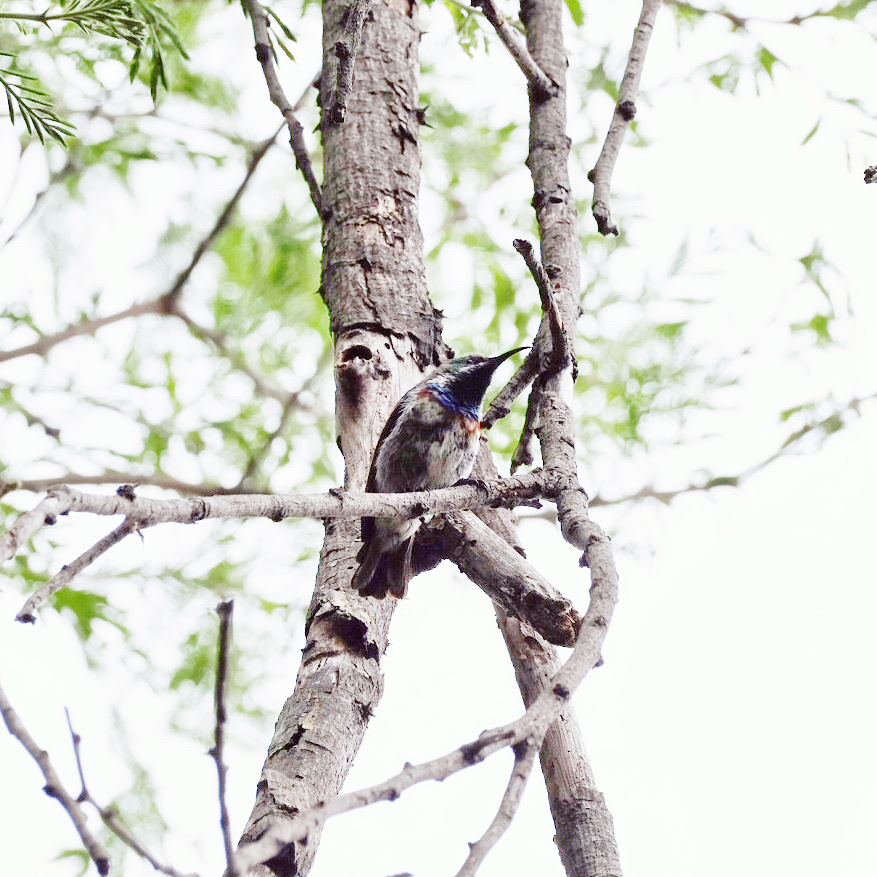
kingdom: Animalia
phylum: Chordata
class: Aves
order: Passeriformes
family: Nectariniidae
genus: Cinnyris
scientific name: Cinnyris mariquensis
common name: Marico sunbird
